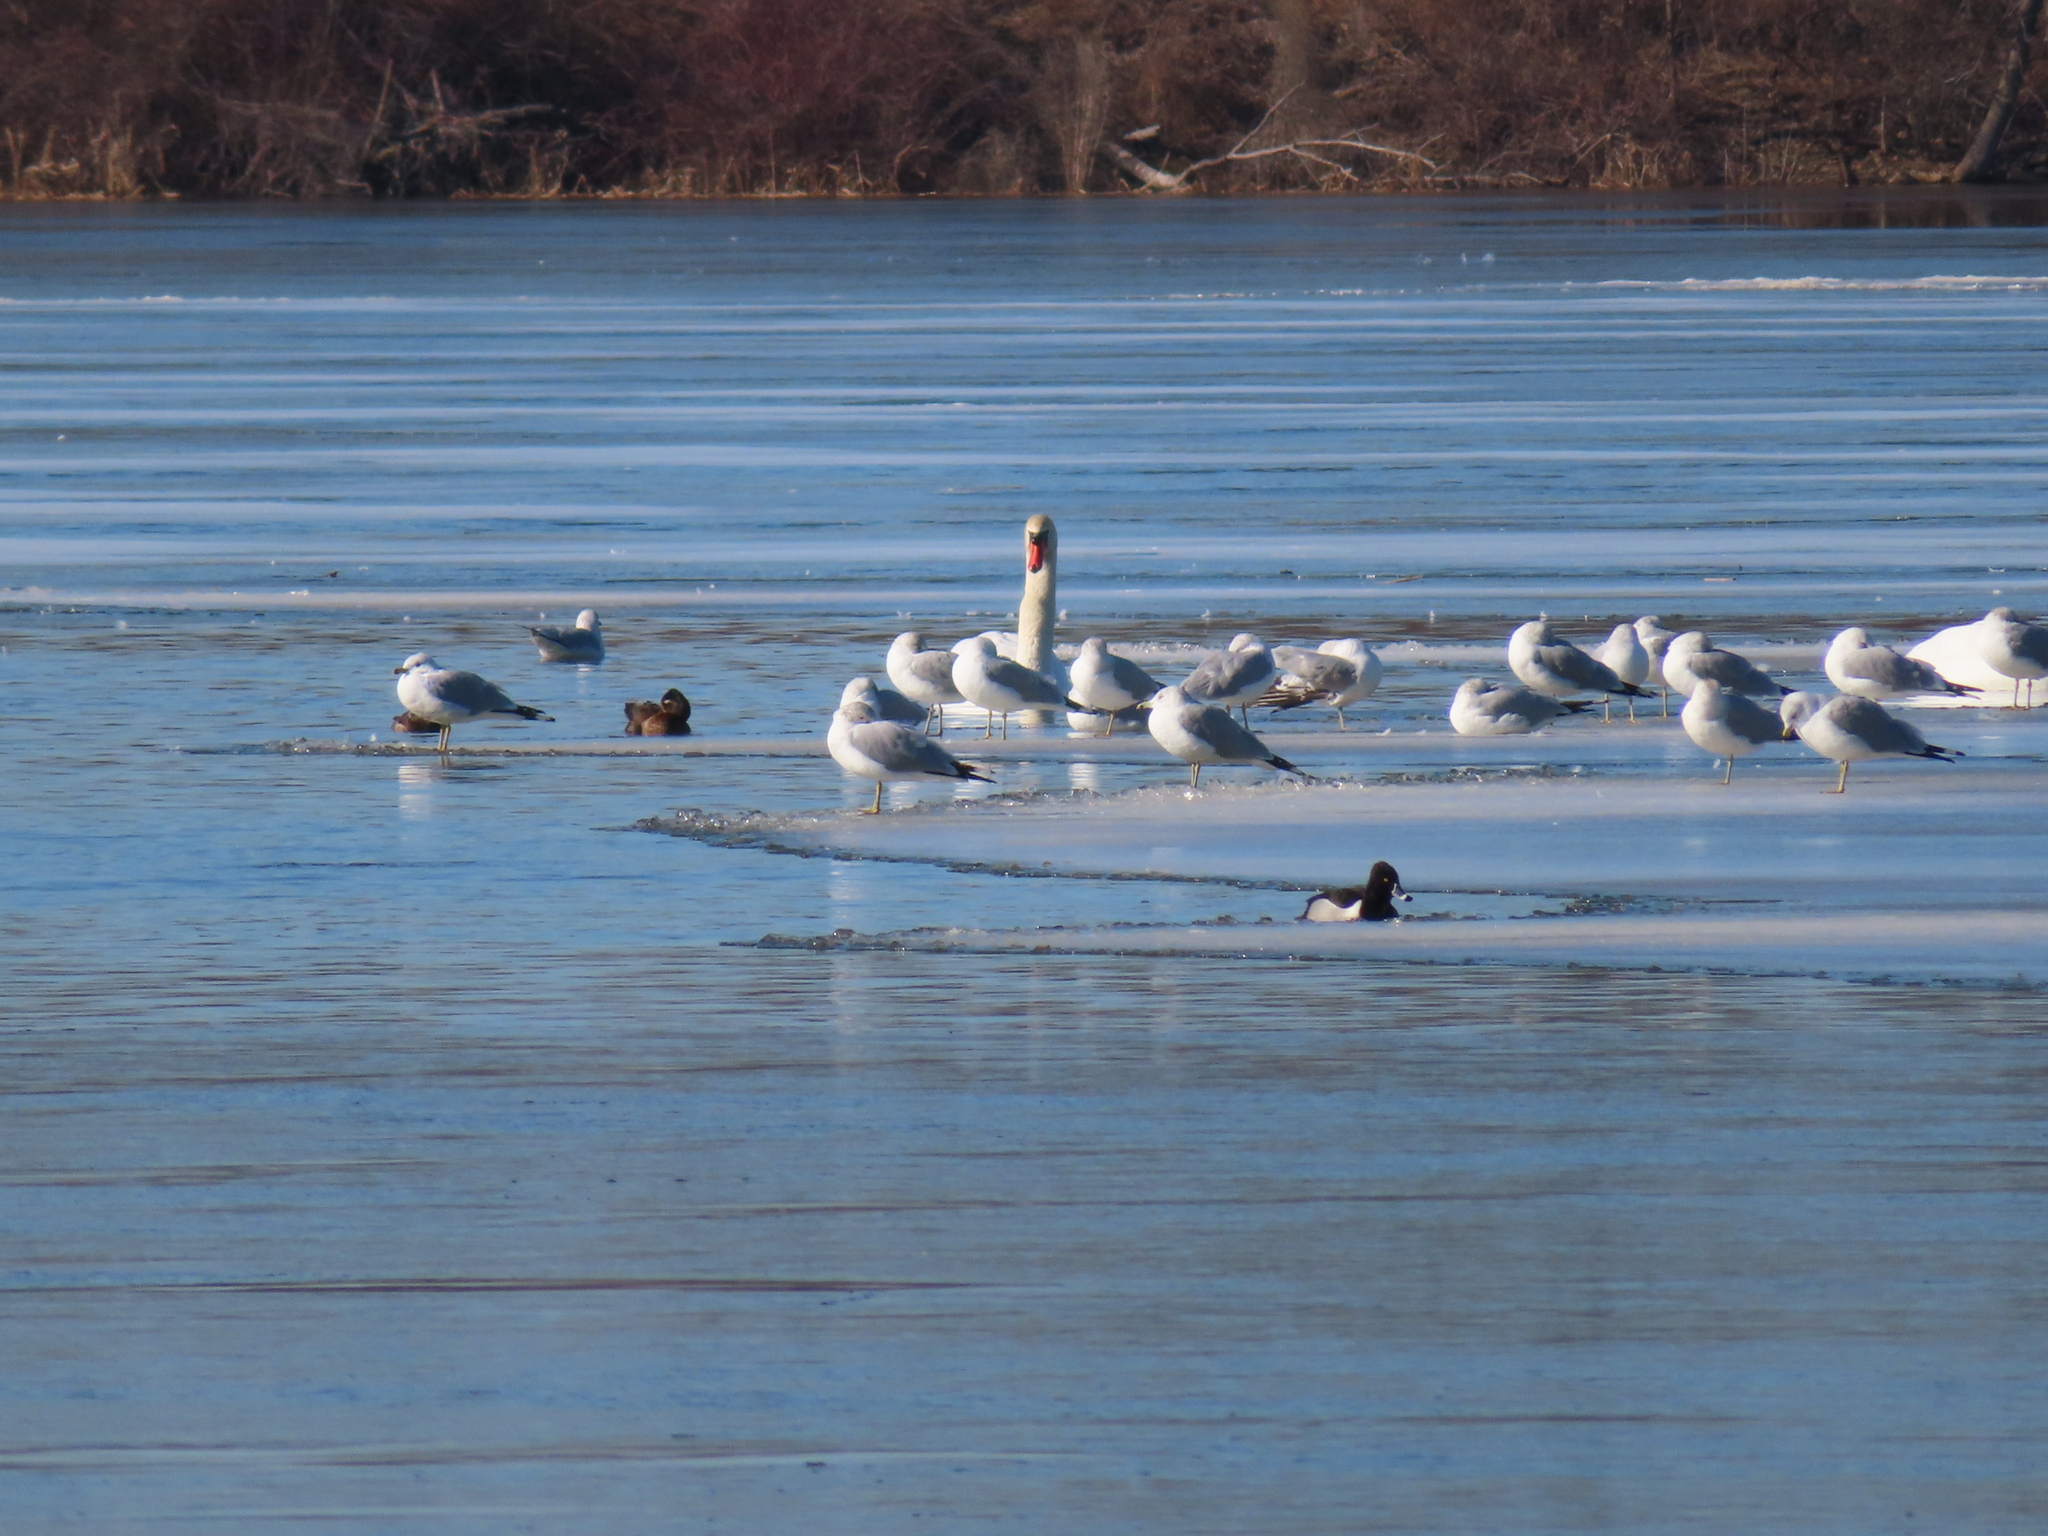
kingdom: Animalia
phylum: Chordata
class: Aves
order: Anseriformes
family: Anatidae
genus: Aythya
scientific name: Aythya collaris
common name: Ring-necked duck
